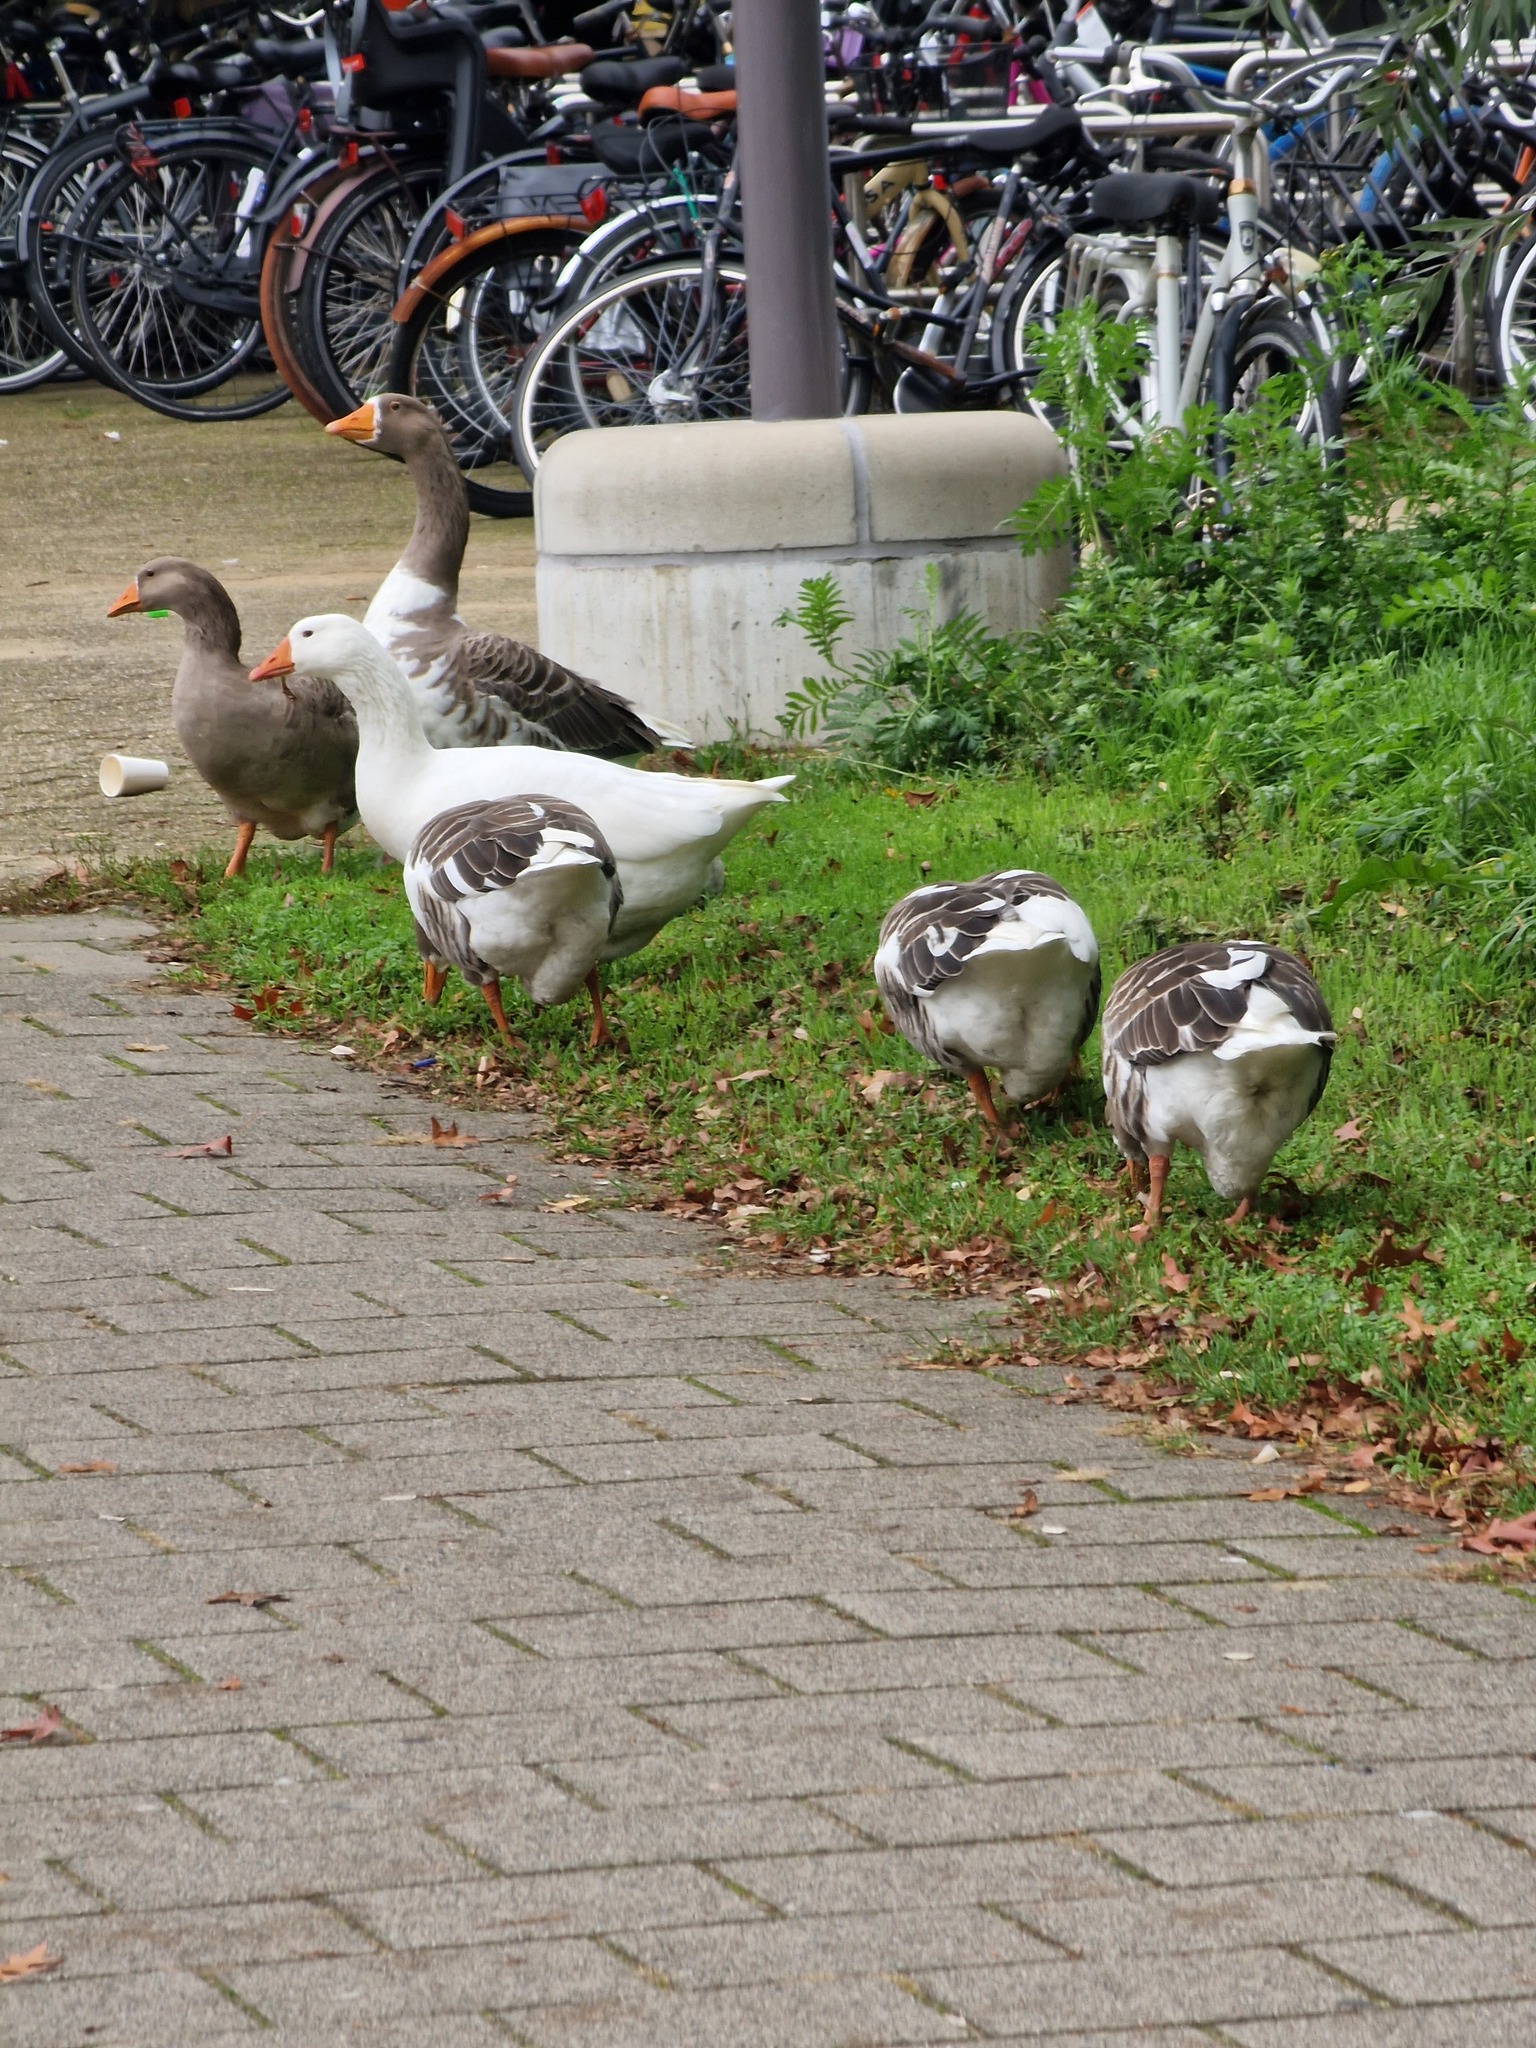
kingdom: Animalia
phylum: Chordata
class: Aves
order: Anseriformes
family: Anatidae
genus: Anser
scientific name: Anser anser
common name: Greylag goose
